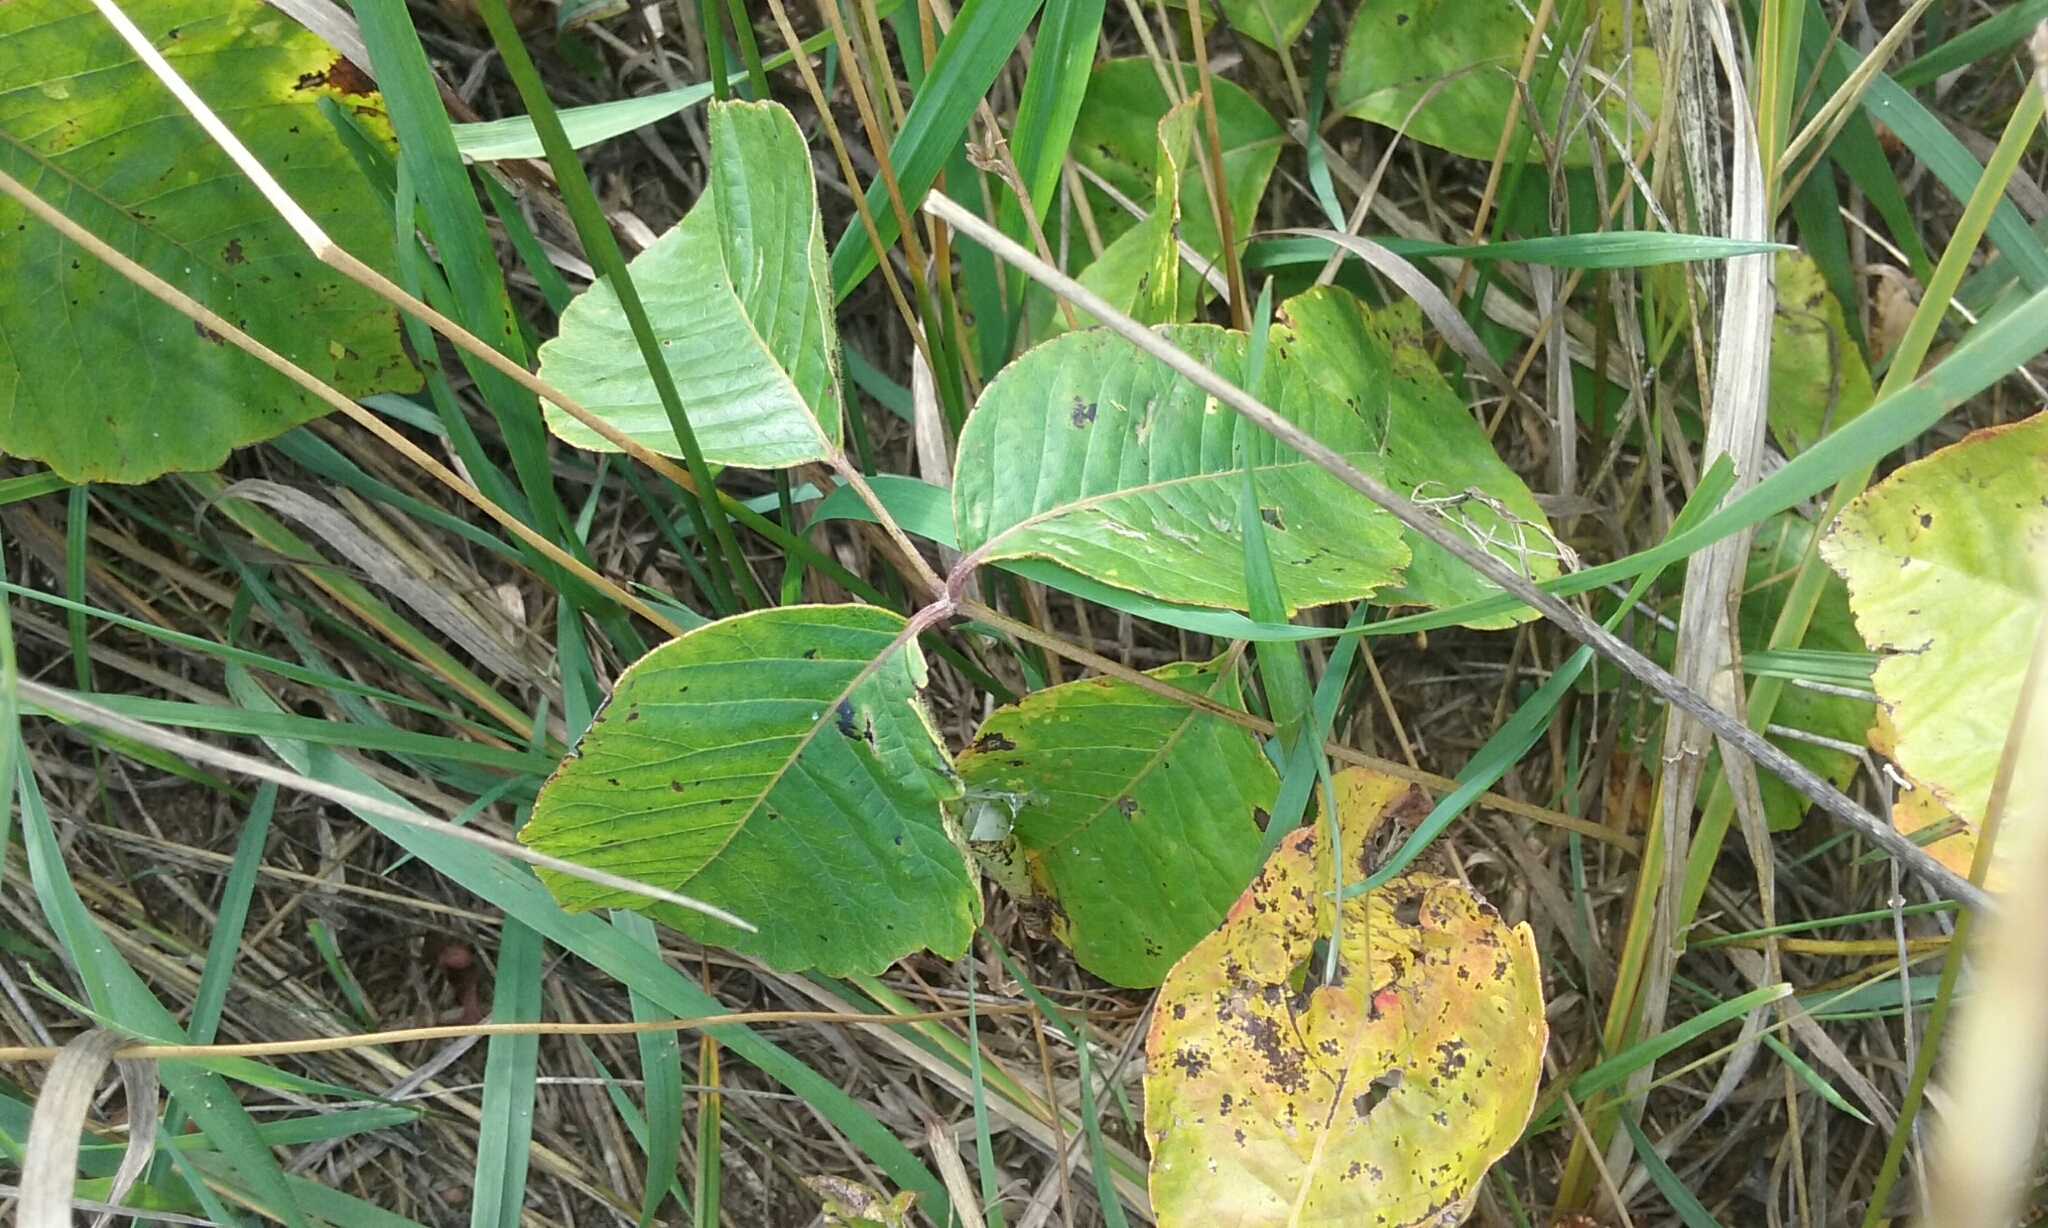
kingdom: Plantae
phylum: Tracheophyta
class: Magnoliopsida
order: Sapindales
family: Anacardiaceae
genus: Toxicodendron
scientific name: Toxicodendron rydbergii
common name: Rydberg's poison-ivy
